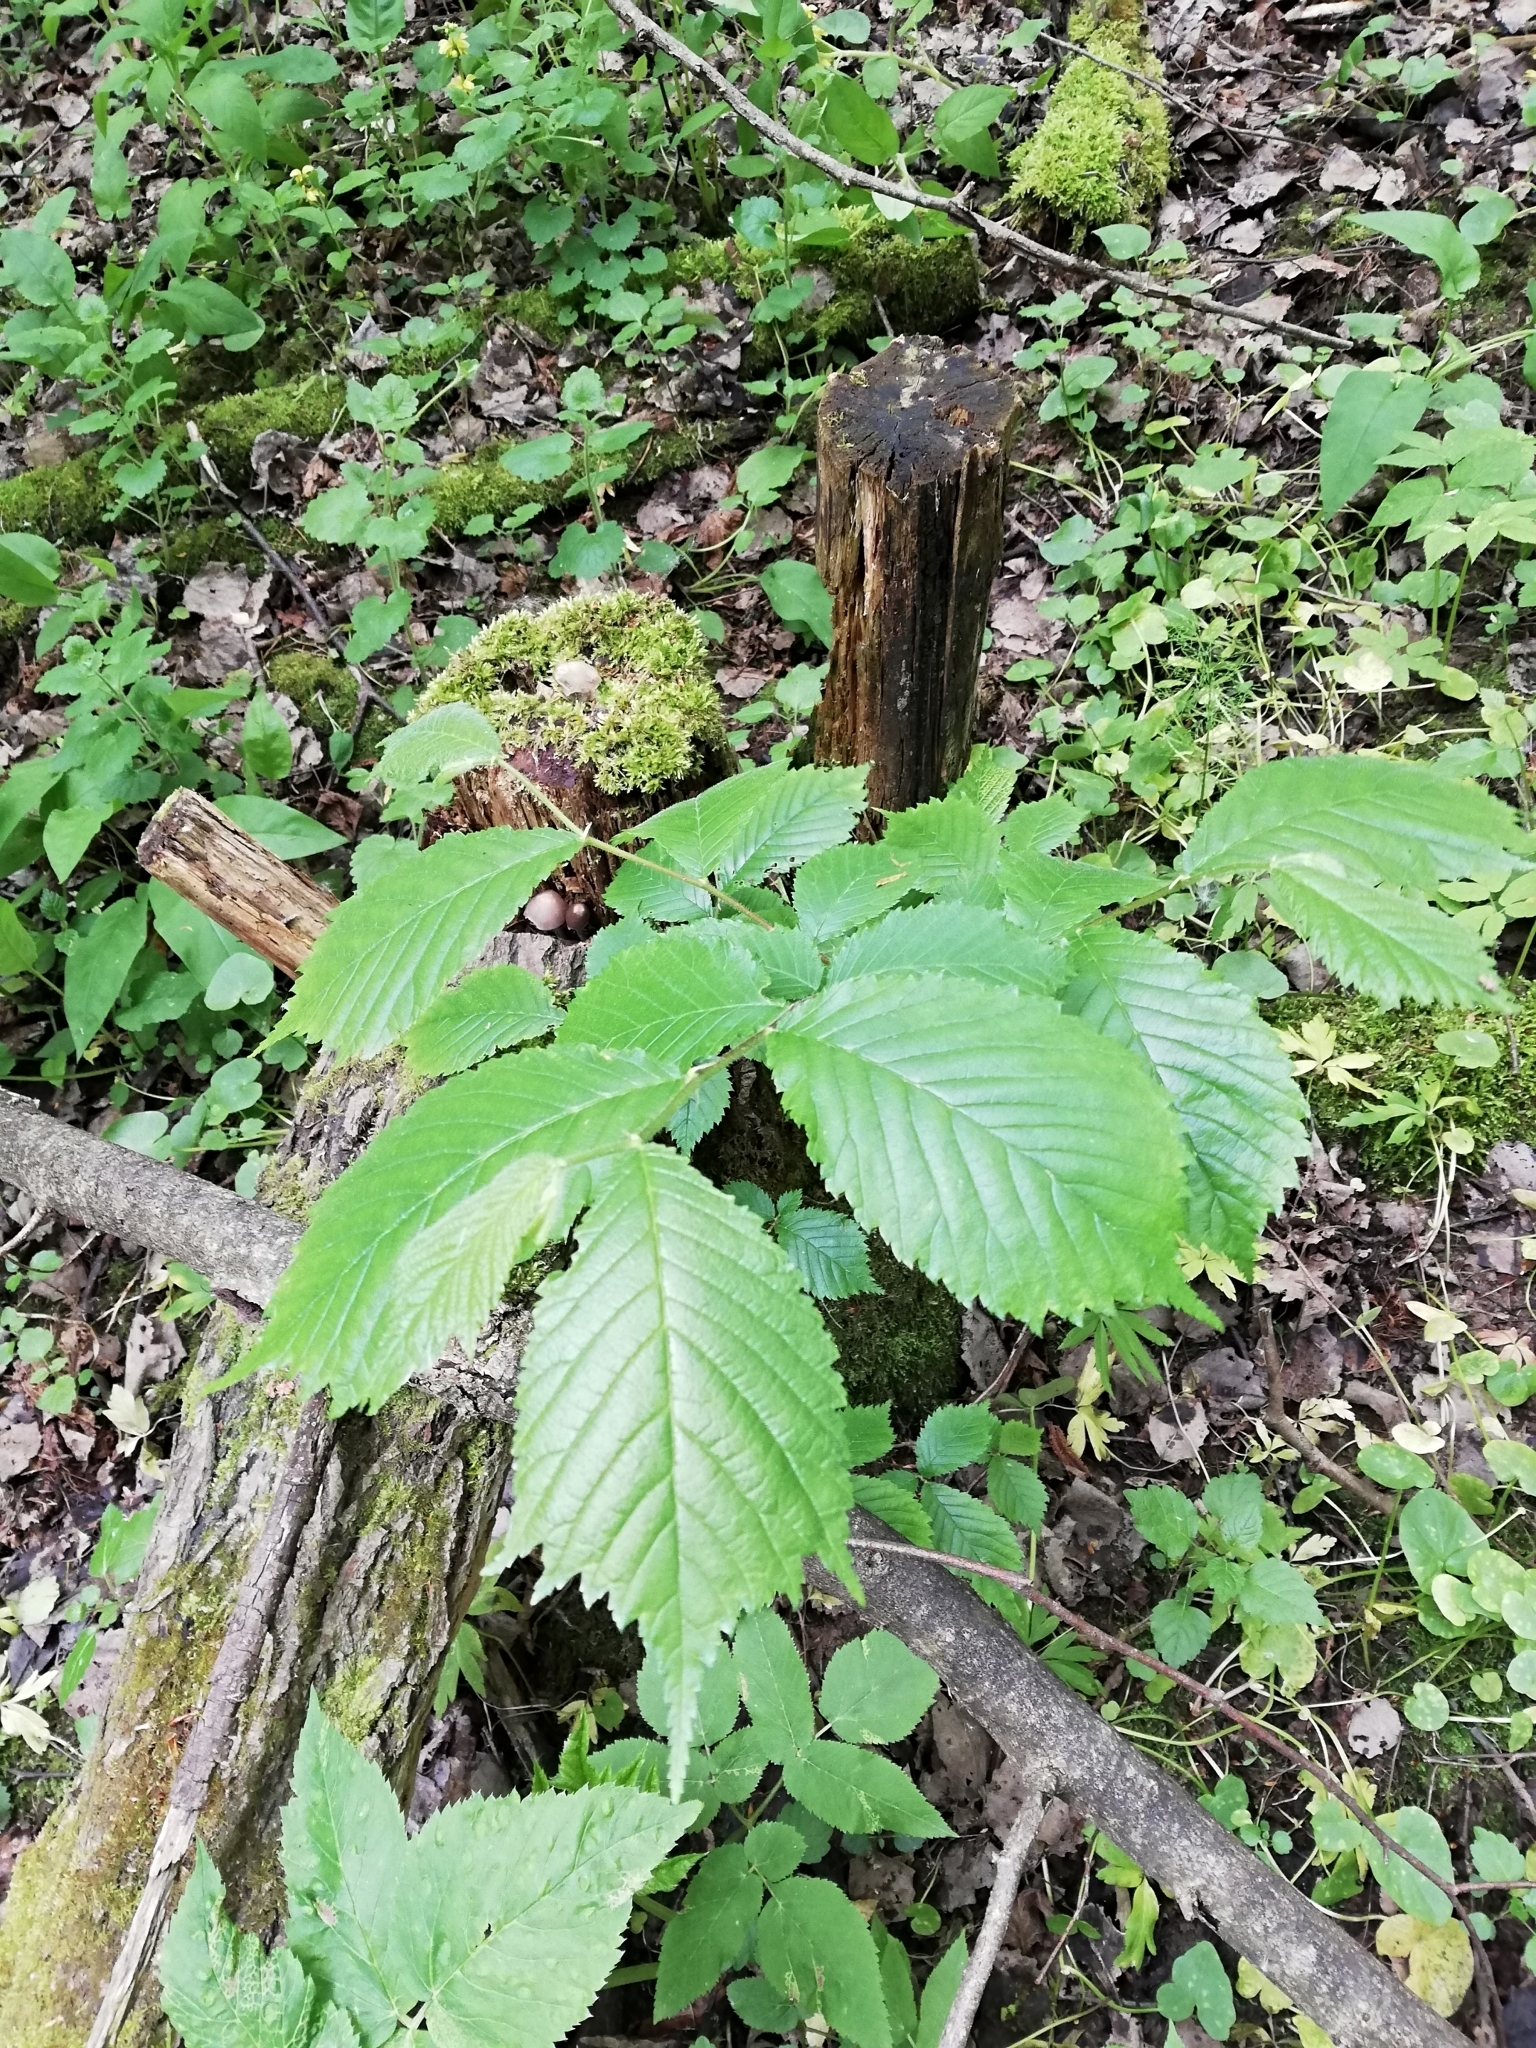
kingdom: Plantae
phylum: Tracheophyta
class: Magnoliopsida
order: Rosales
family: Ulmaceae
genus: Ulmus
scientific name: Ulmus glabra
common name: Wych elm
